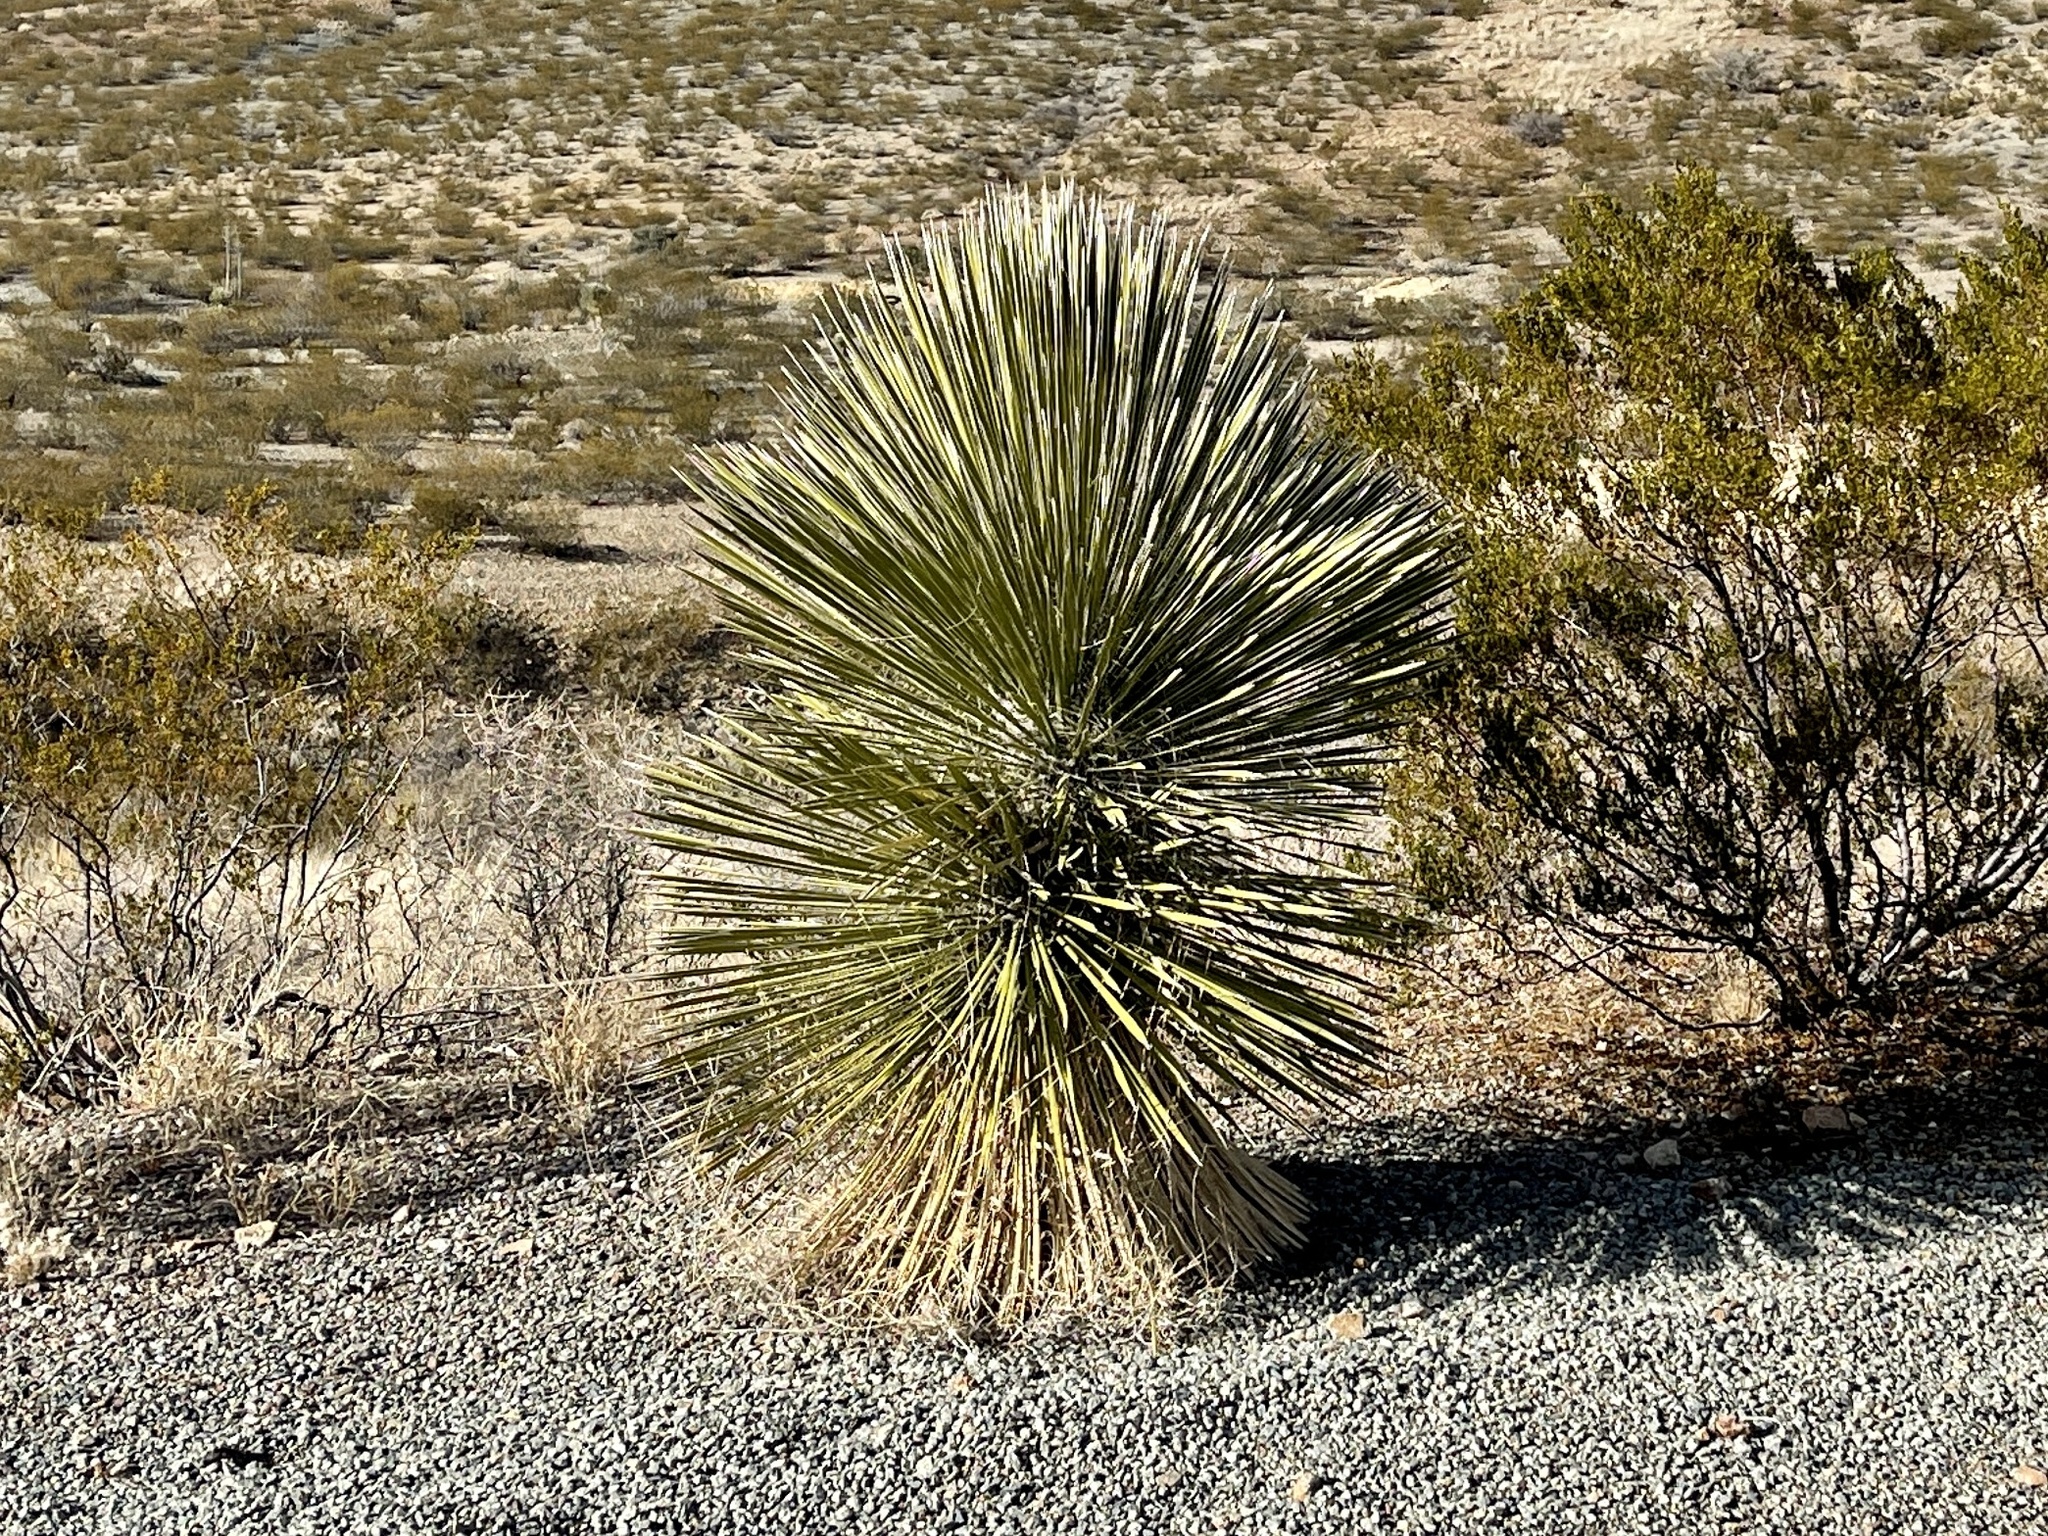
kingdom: Plantae
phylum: Tracheophyta
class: Liliopsida
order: Asparagales
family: Asparagaceae
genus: Yucca
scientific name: Yucca elata
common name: Palmella
